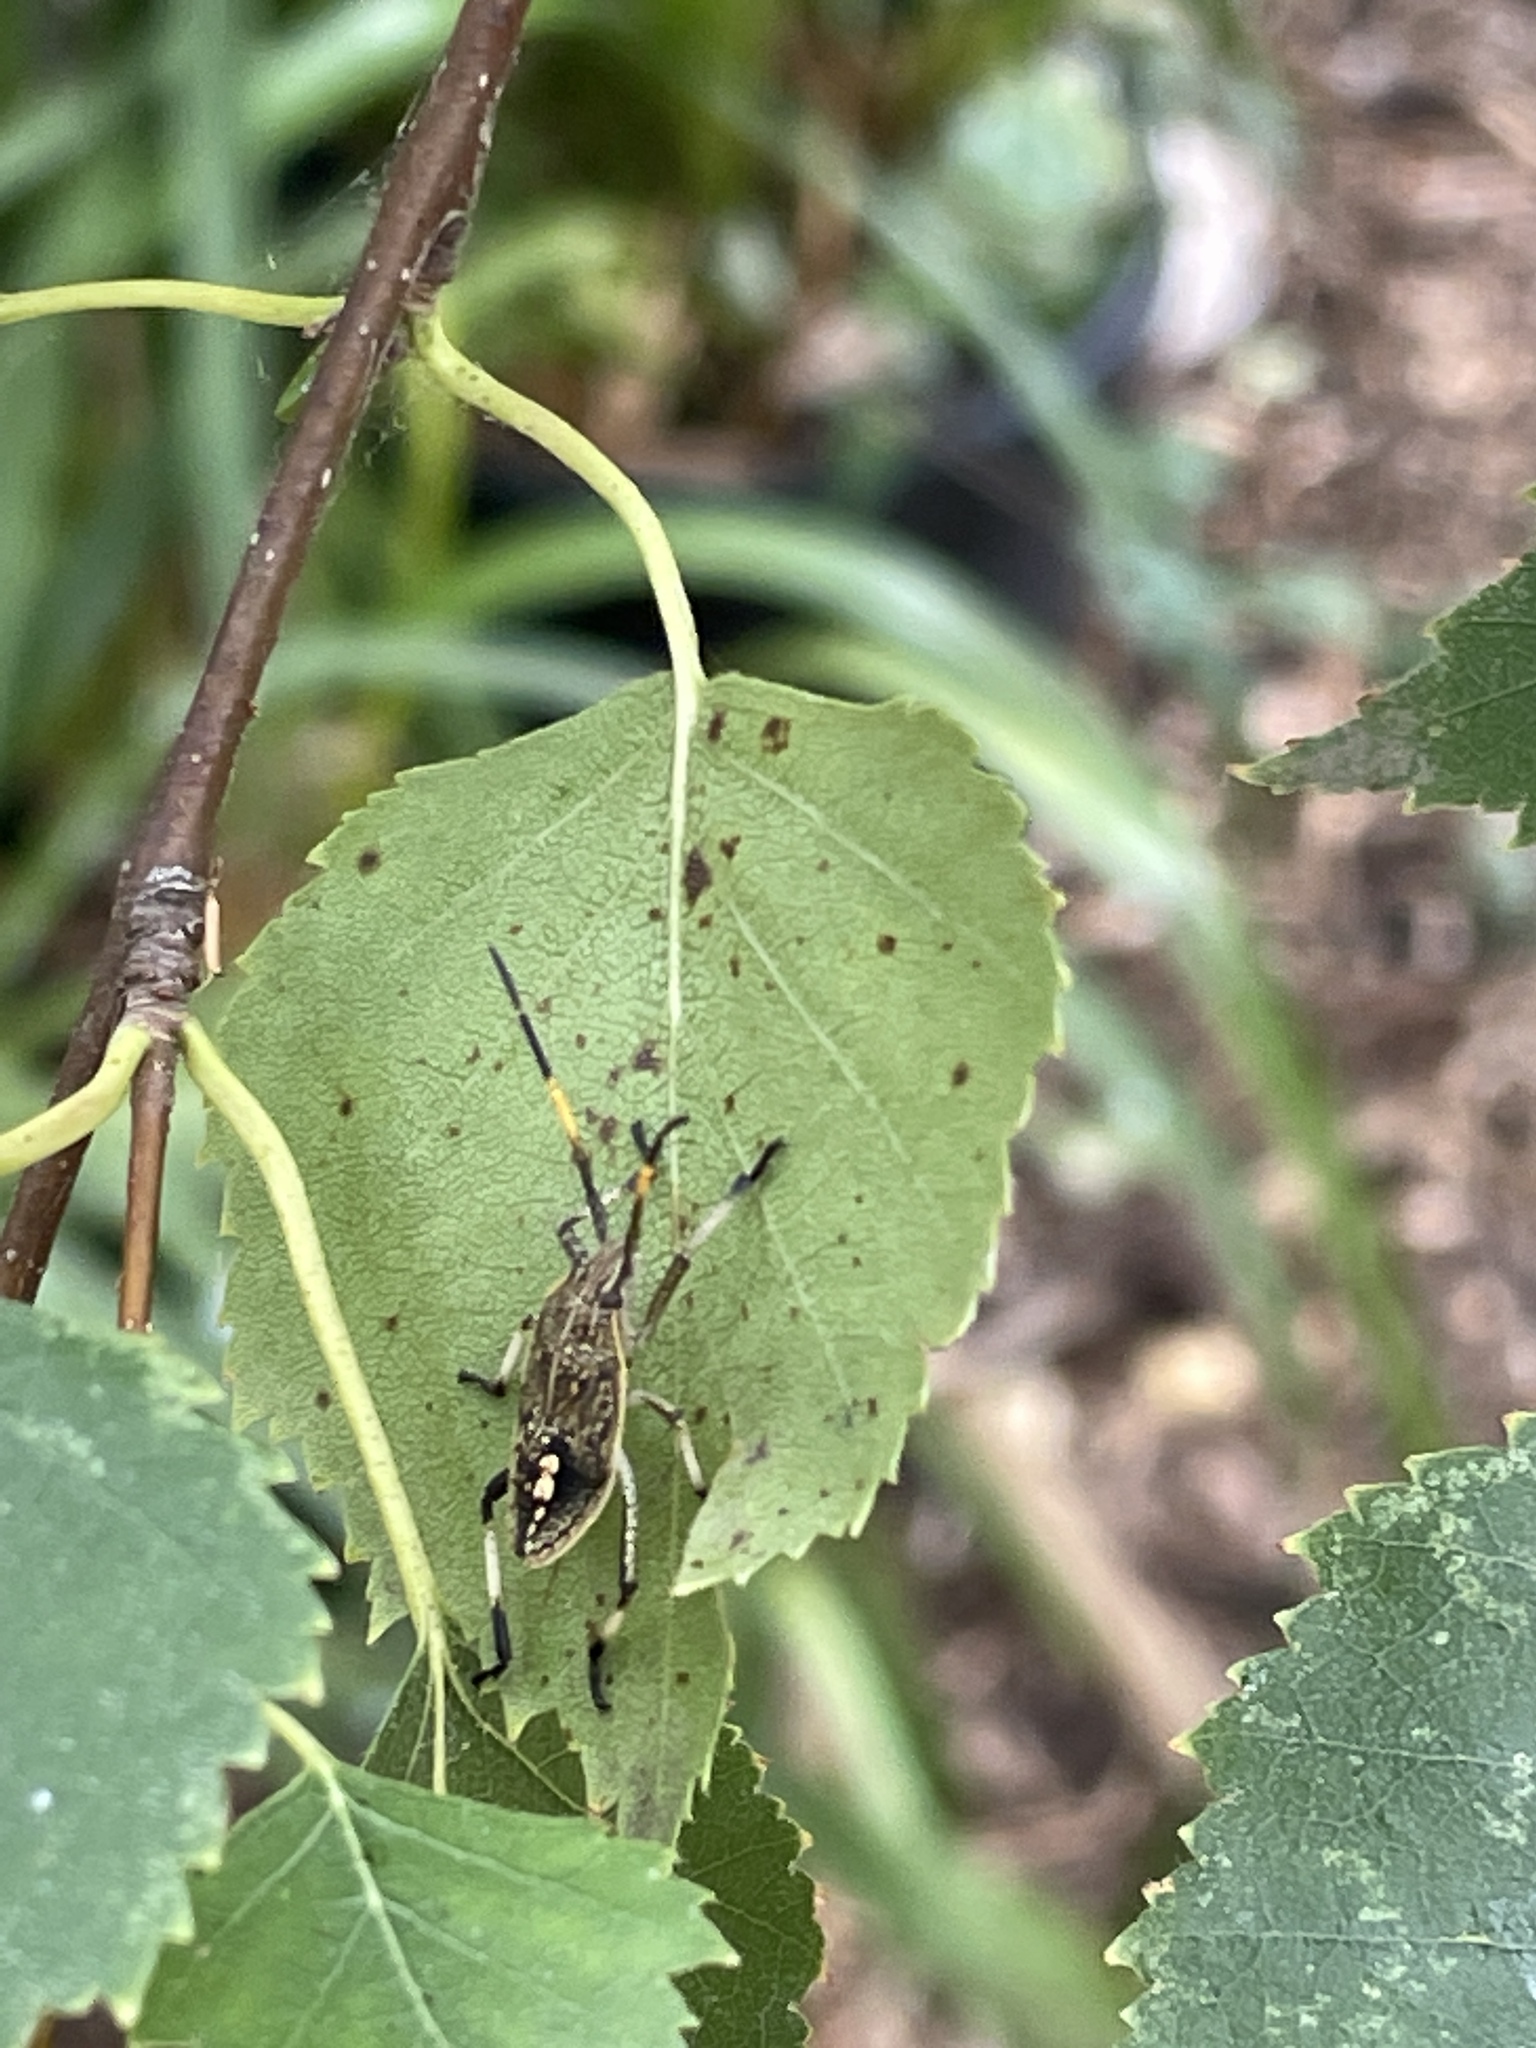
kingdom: Animalia
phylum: Arthropoda
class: Insecta
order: Hemiptera
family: Pentatomidae
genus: Poecilometis
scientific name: Poecilometis
